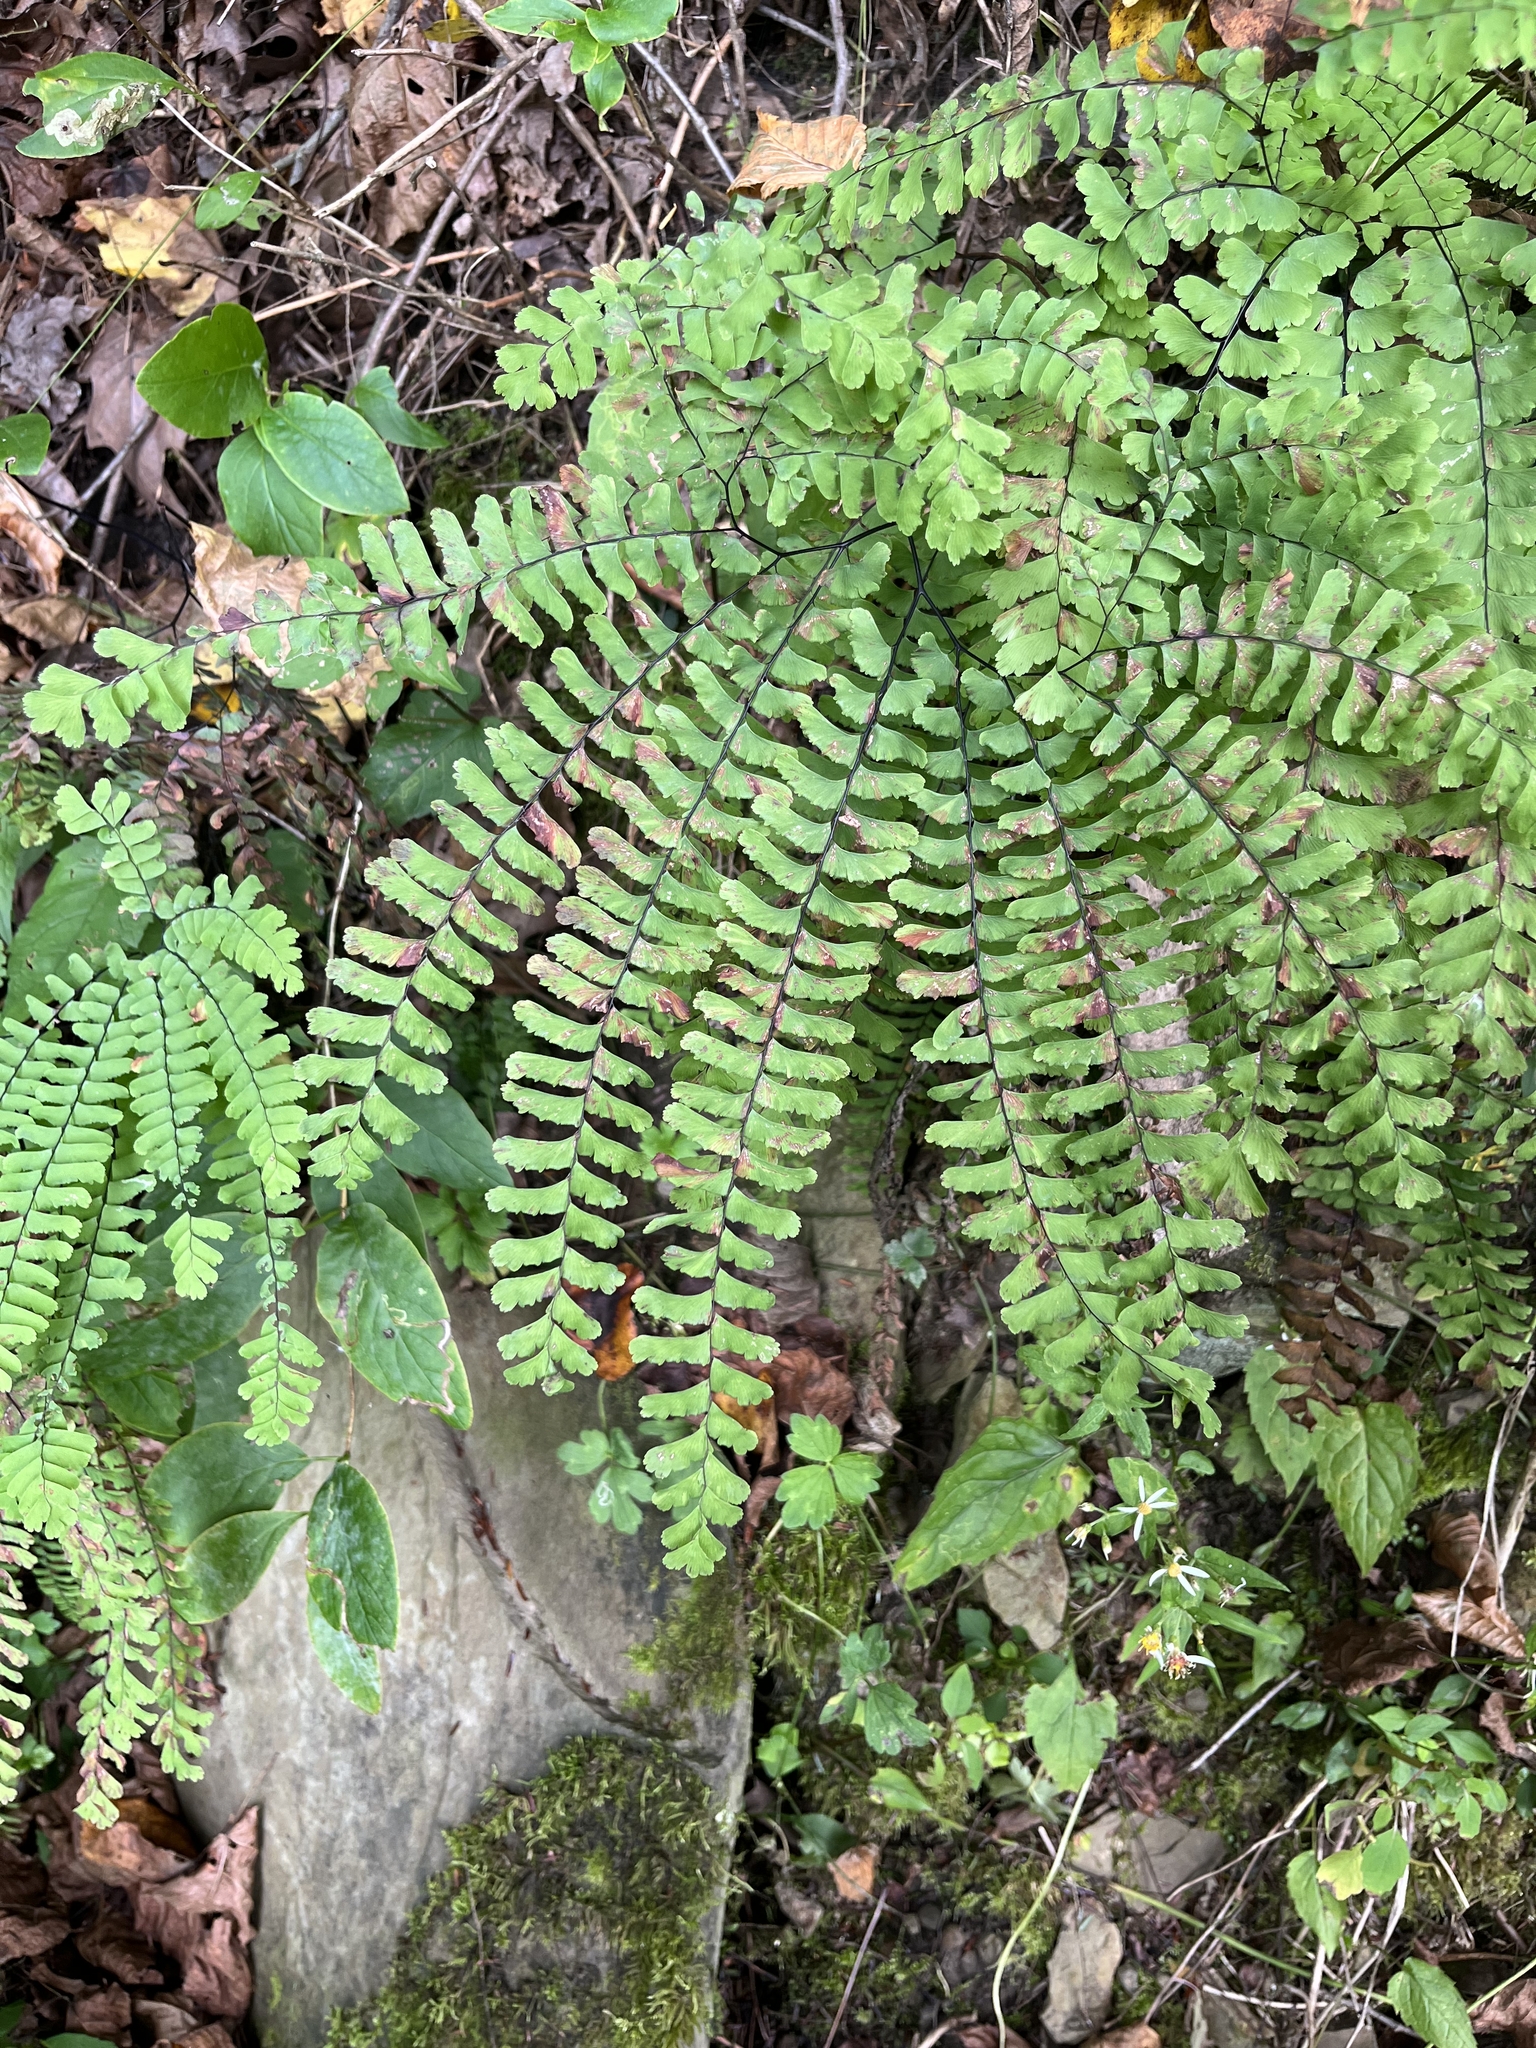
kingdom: Plantae
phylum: Tracheophyta
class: Polypodiopsida
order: Polypodiales
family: Pteridaceae
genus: Adiantum
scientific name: Adiantum pedatum
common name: Five-finger fern
